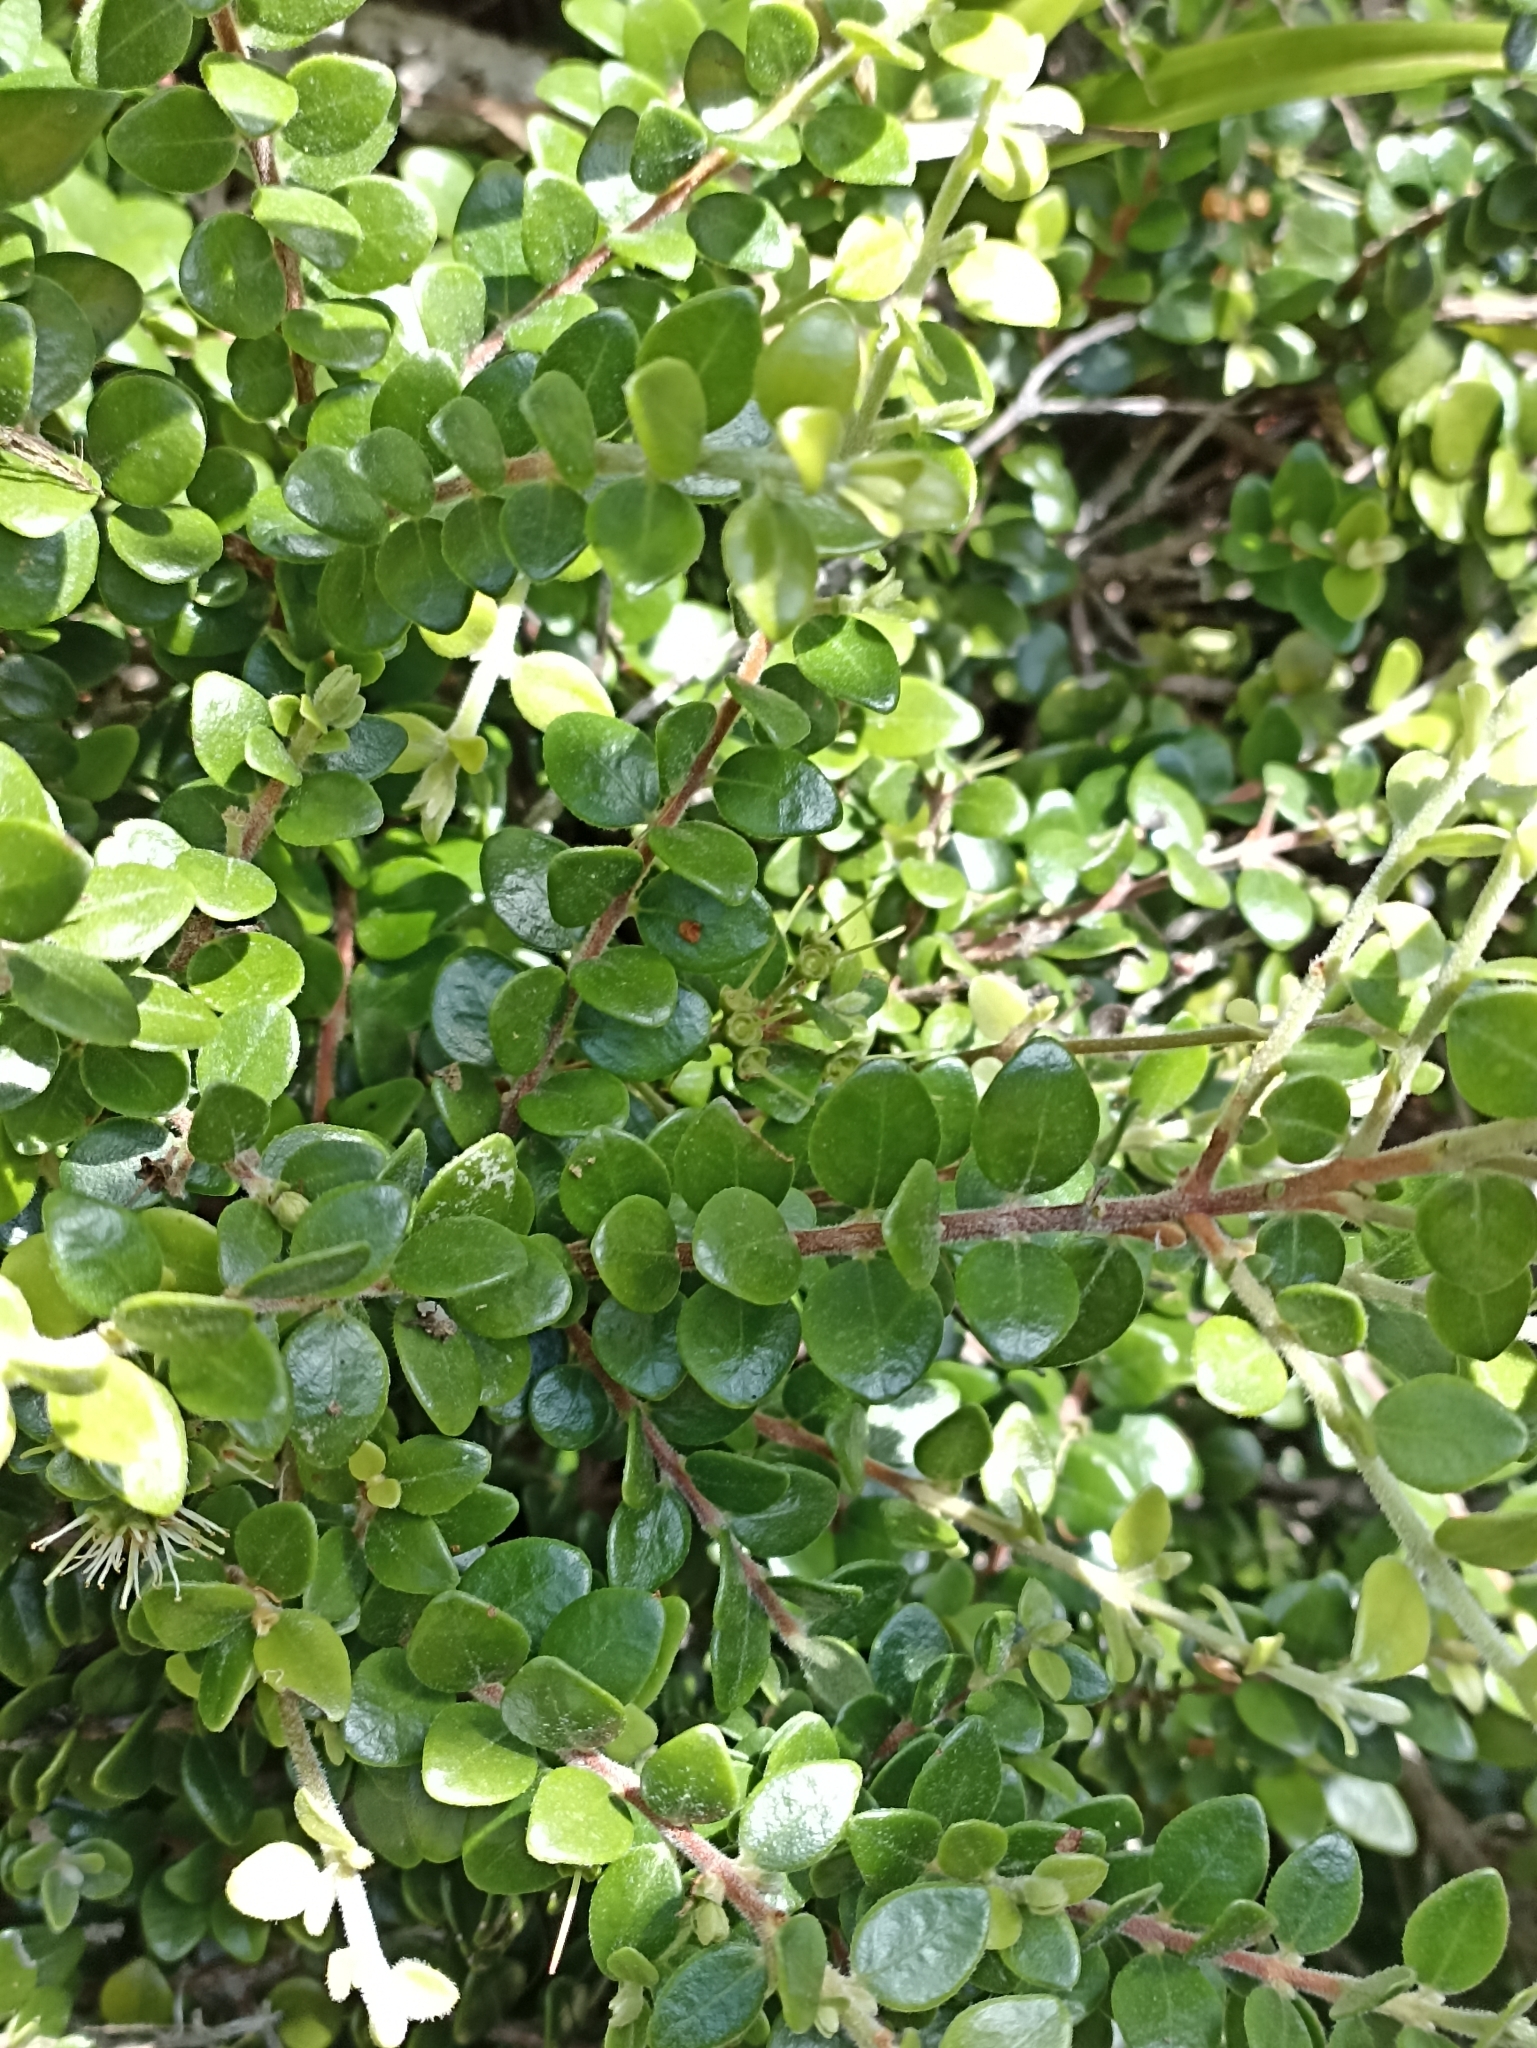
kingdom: Plantae
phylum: Tracheophyta
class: Magnoliopsida
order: Myrtales
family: Myrtaceae
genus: Metrosideros
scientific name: Metrosideros perforata
